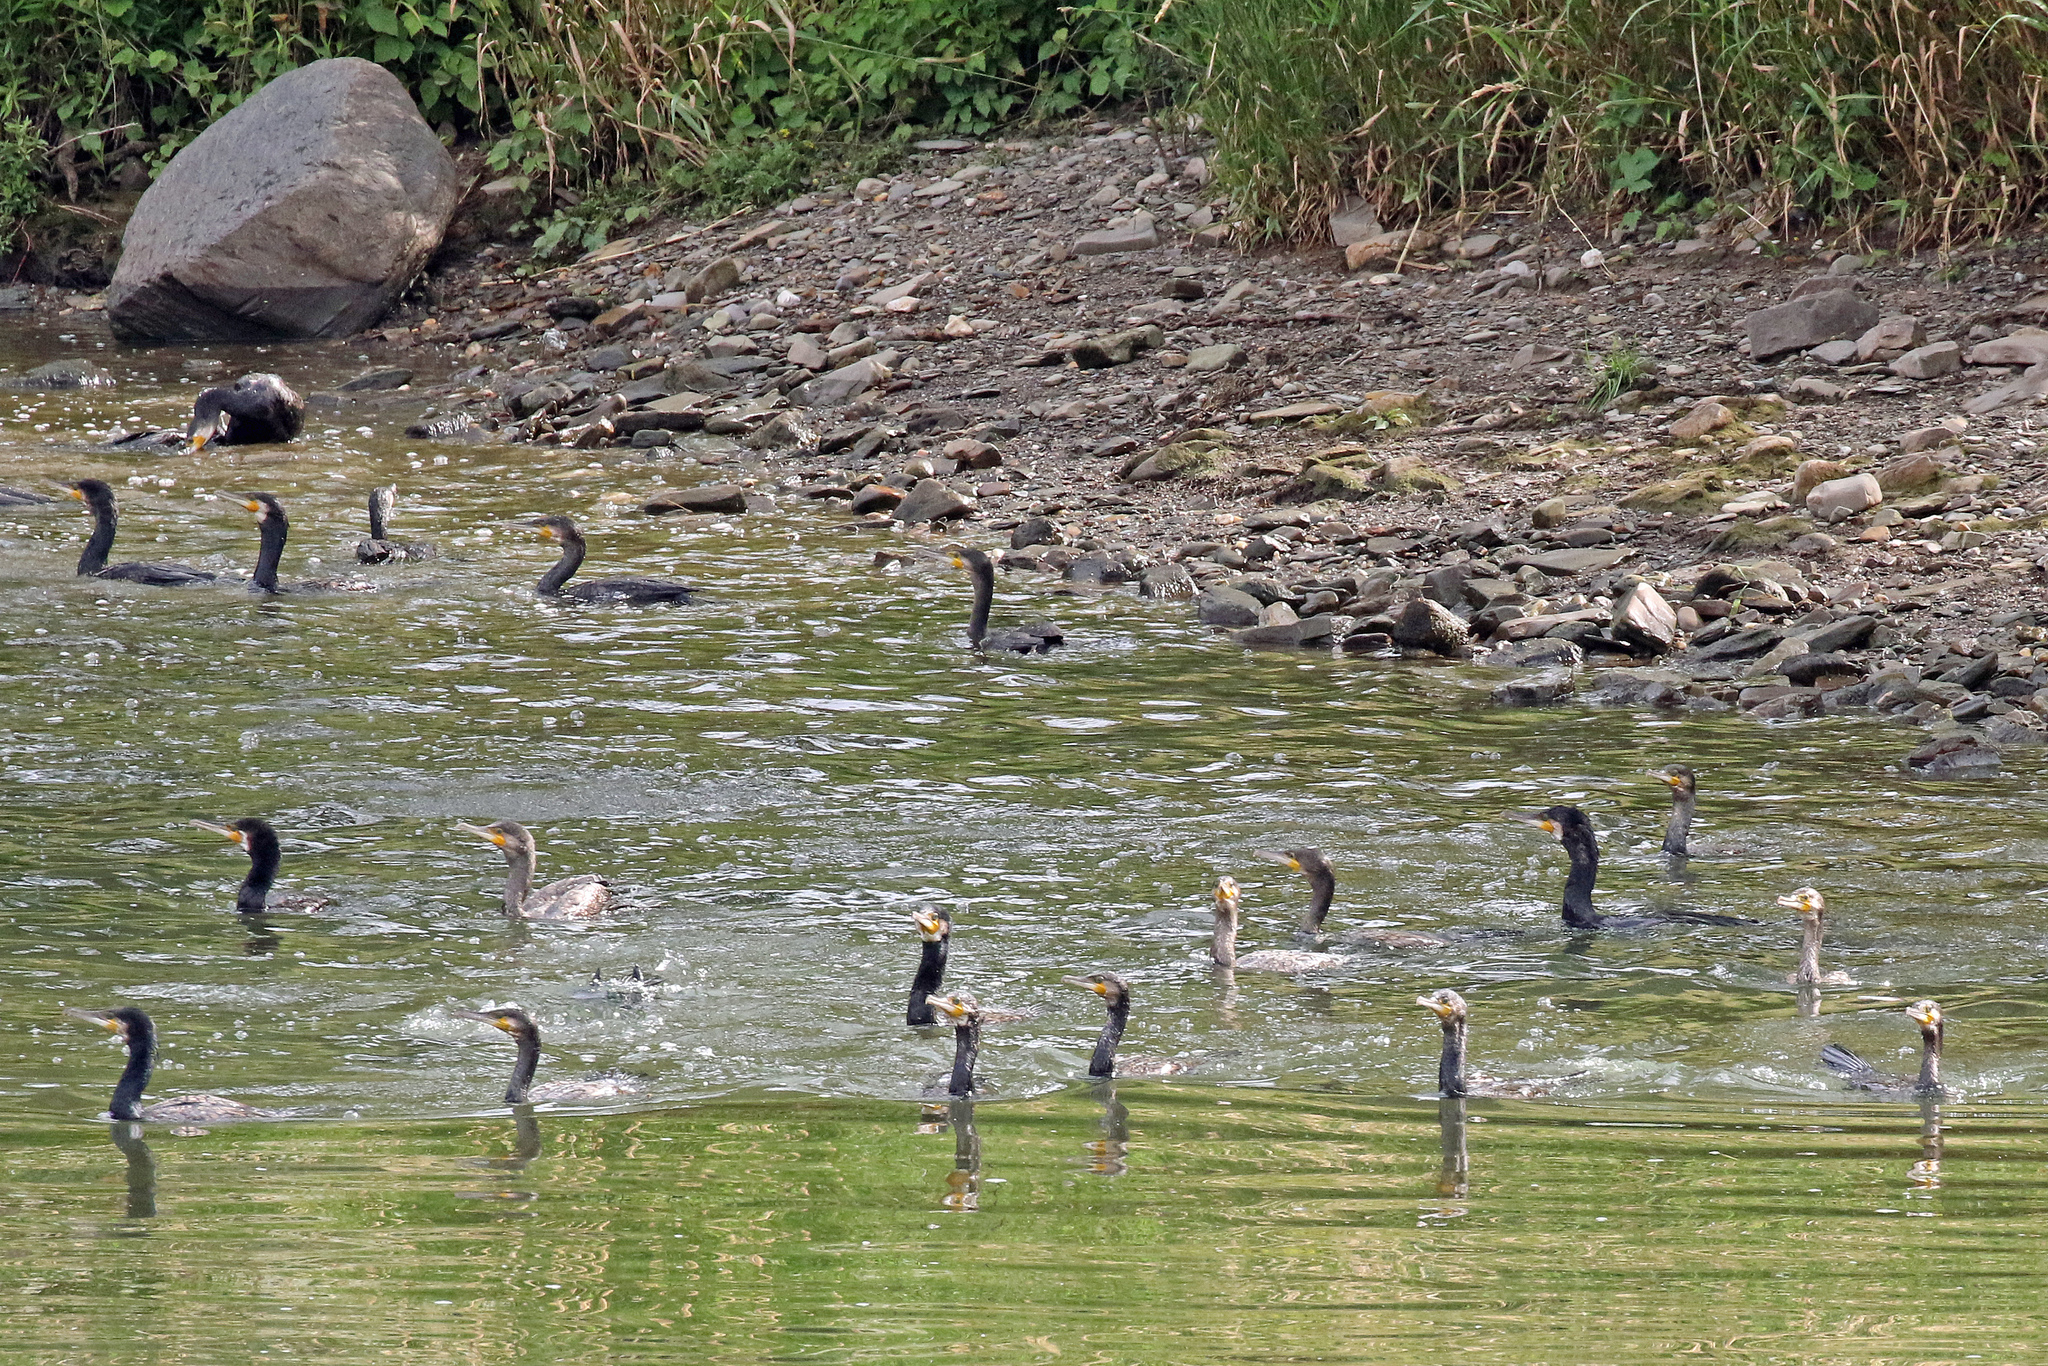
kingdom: Animalia
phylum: Chordata
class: Aves
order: Suliformes
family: Phalacrocoracidae
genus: Phalacrocorax
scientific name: Phalacrocorax carbo
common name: Great cormorant
